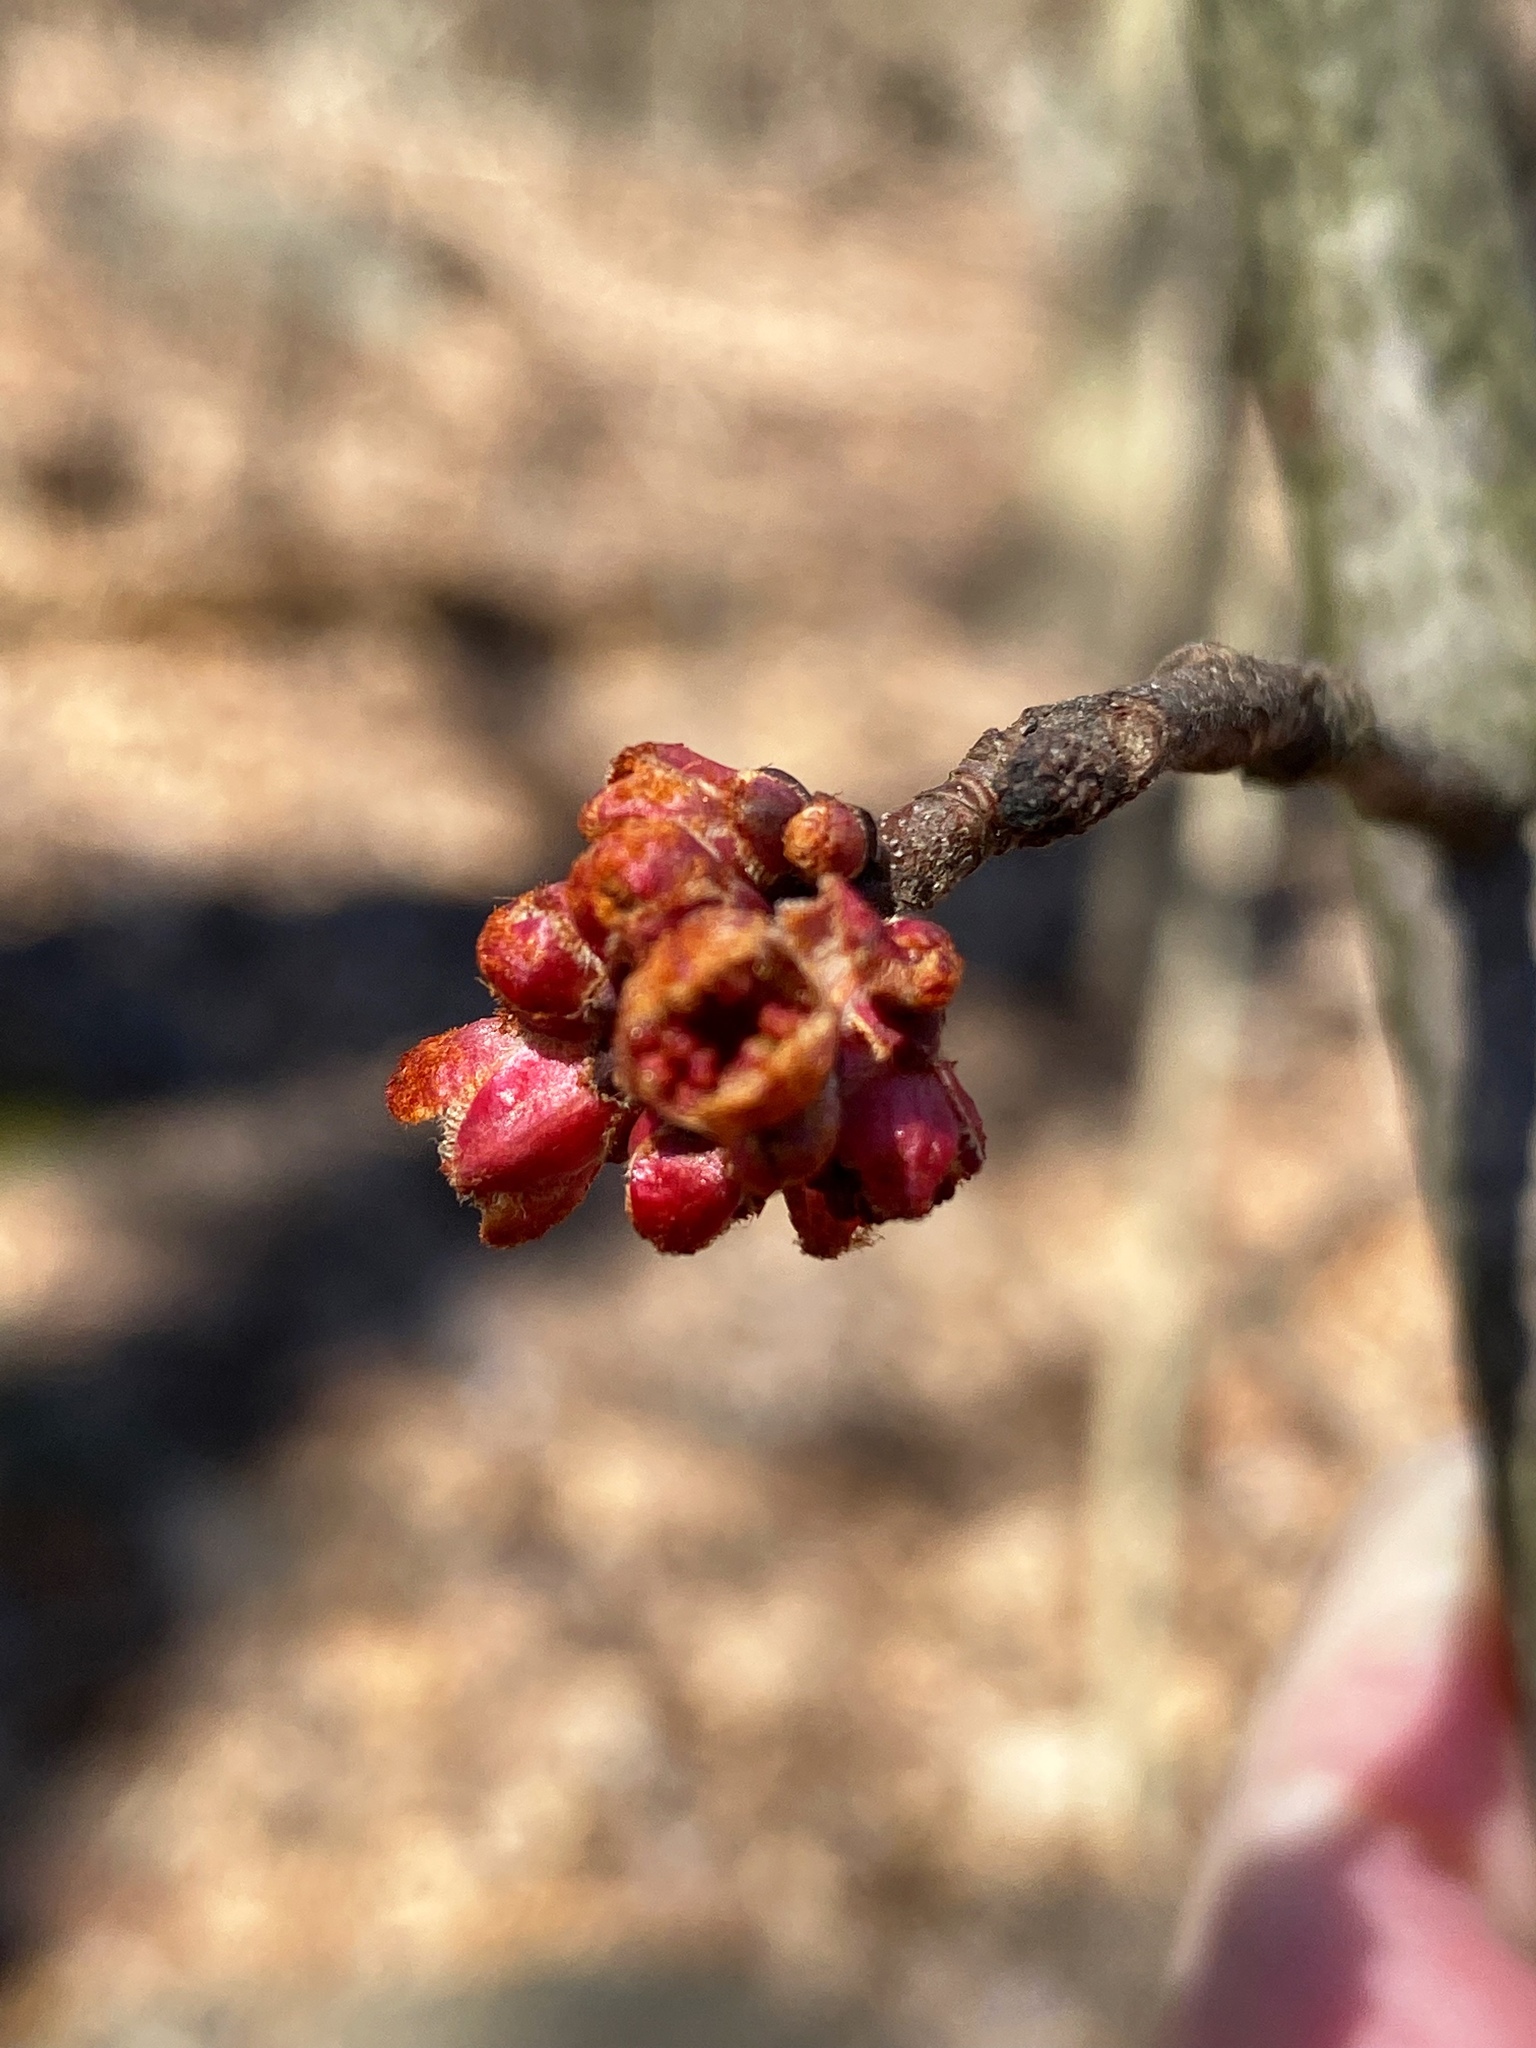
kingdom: Plantae
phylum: Tracheophyta
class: Magnoliopsida
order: Sapindales
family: Sapindaceae
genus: Acer
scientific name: Acer rubrum
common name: Red maple
